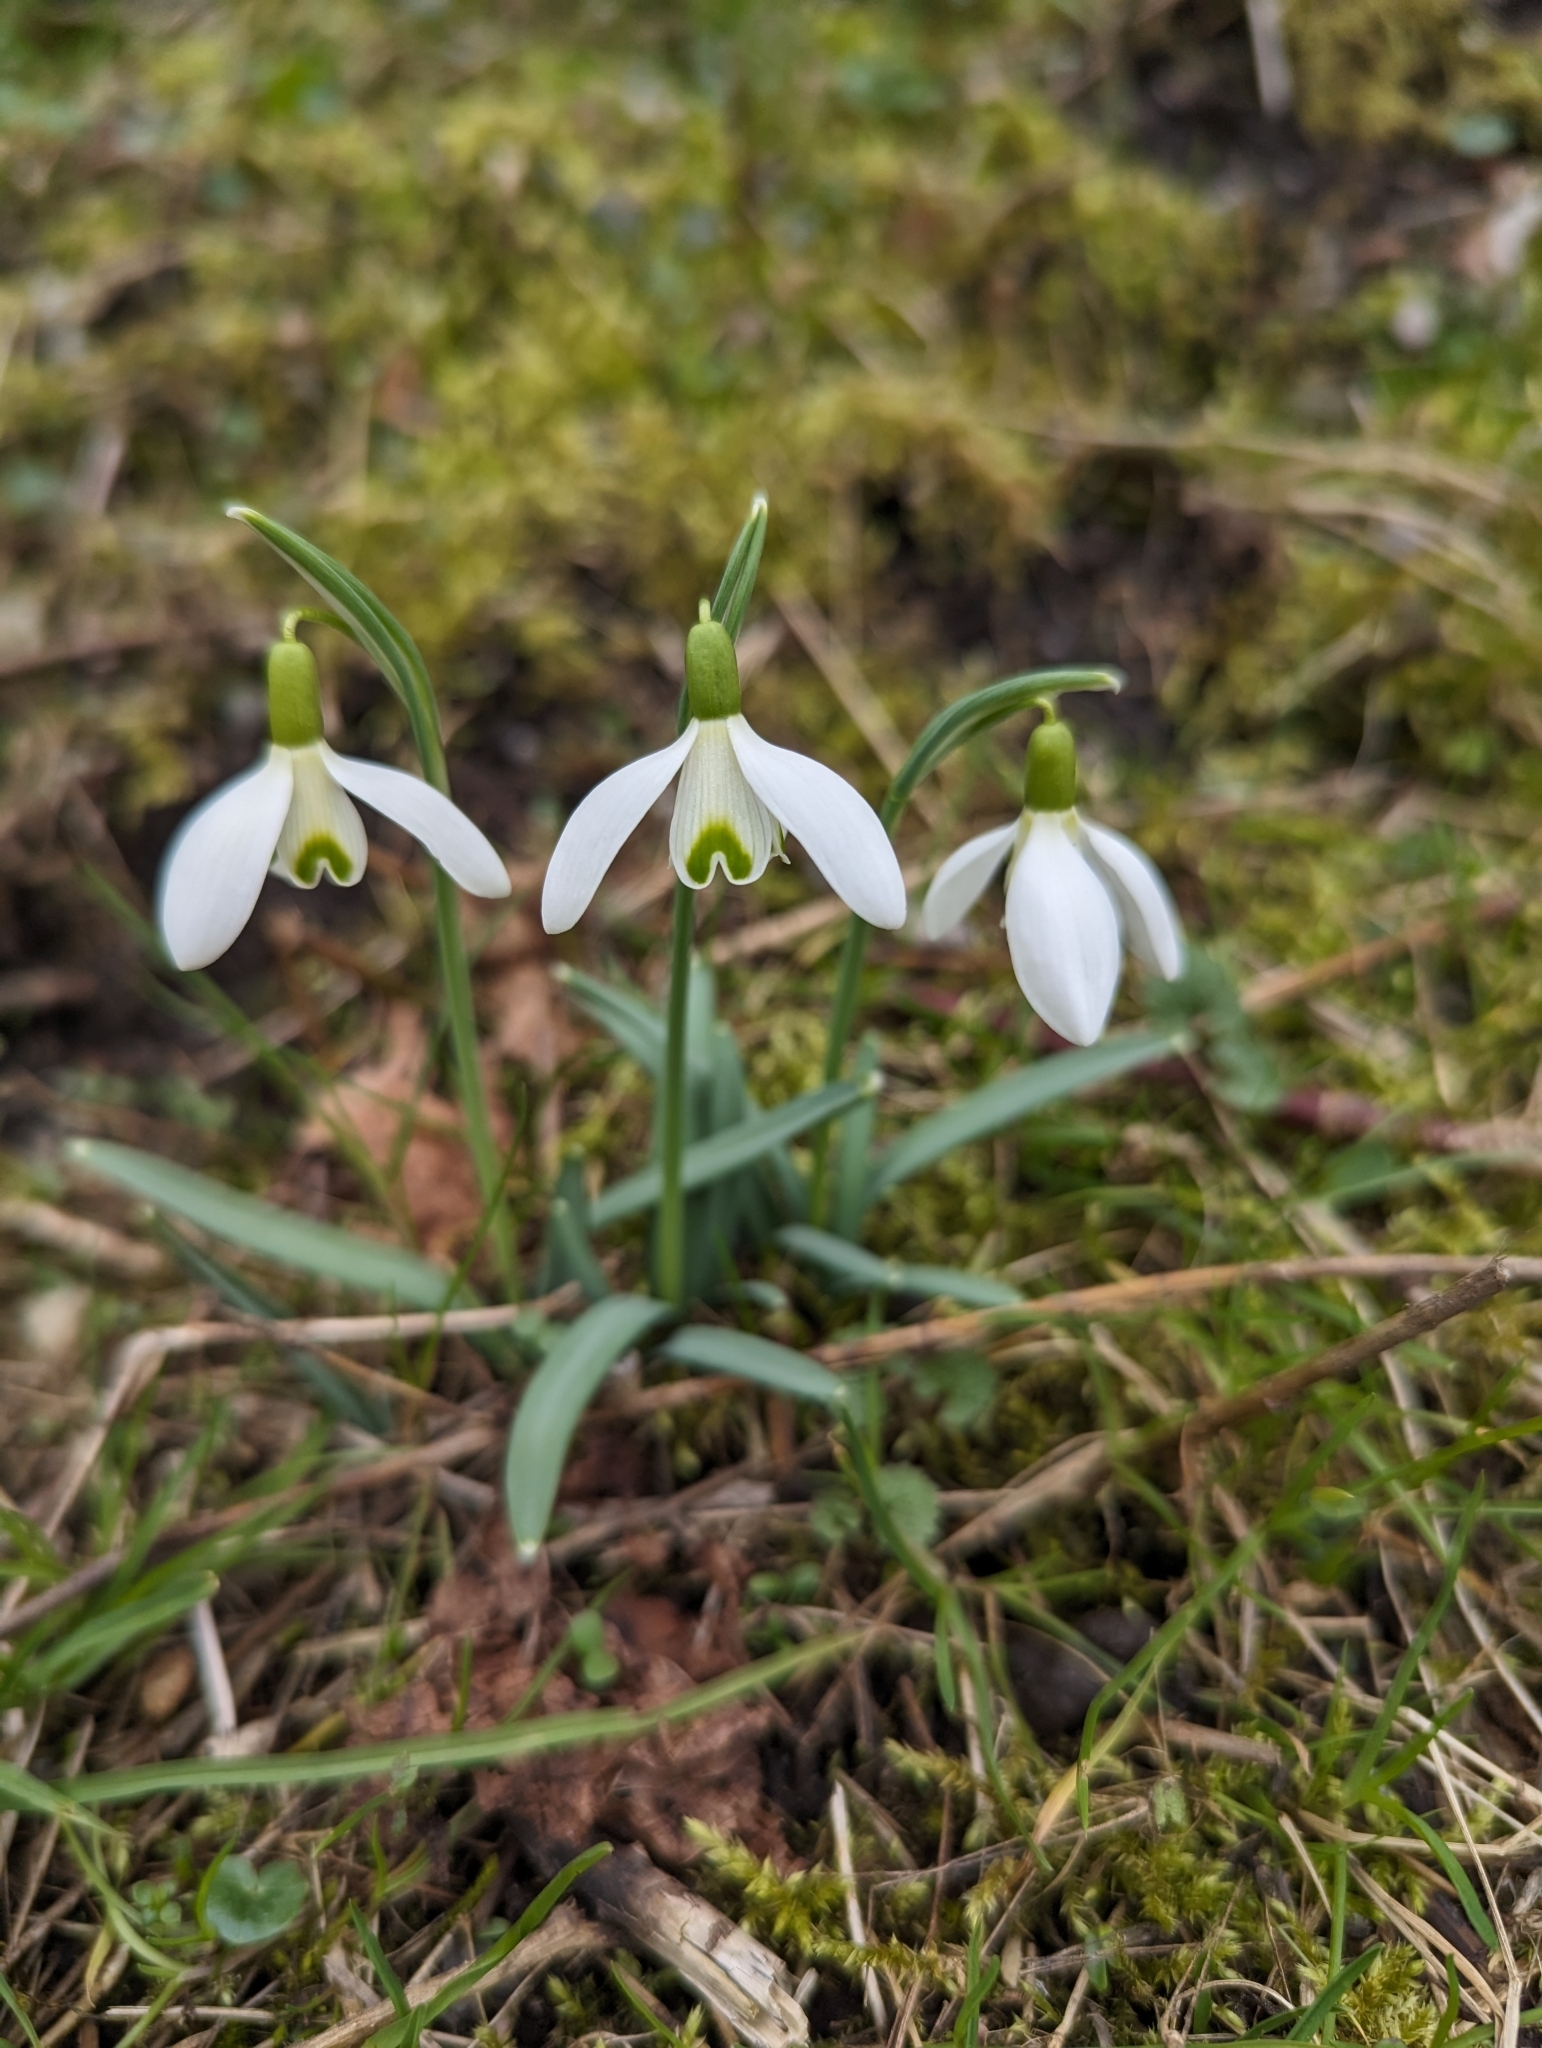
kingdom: Plantae
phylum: Tracheophyta
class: Liliopsida
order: Asparagales
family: Amaryllidaceae
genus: Galanthus
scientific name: Galanthus nivalis
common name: Snowdrop
